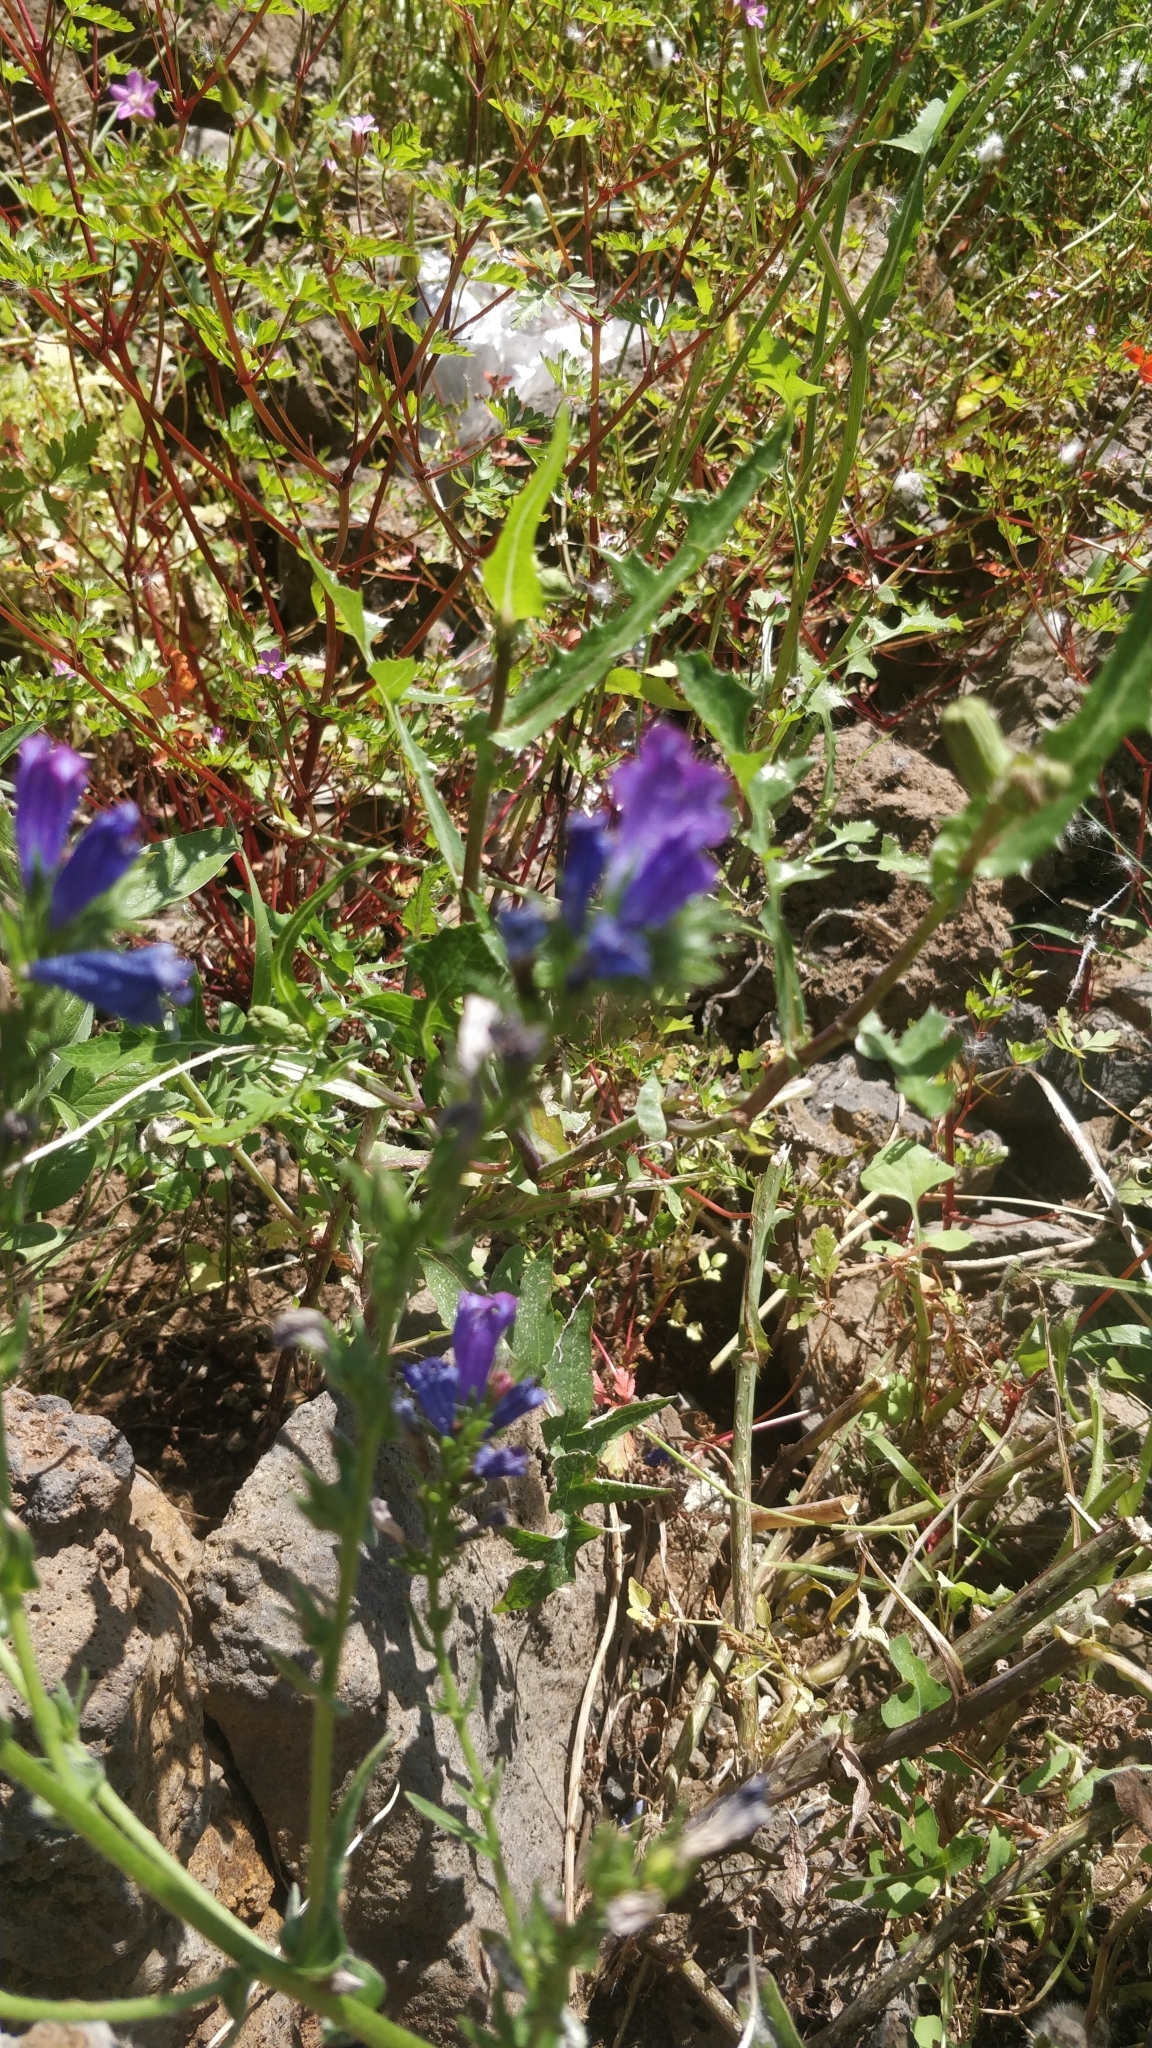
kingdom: Plantae
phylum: Tracheophyta
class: Magnoliopsida
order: Boraginales
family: Boraginaceae
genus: Echium
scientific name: Echium plantagineum
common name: Purple viper's-bugloss
